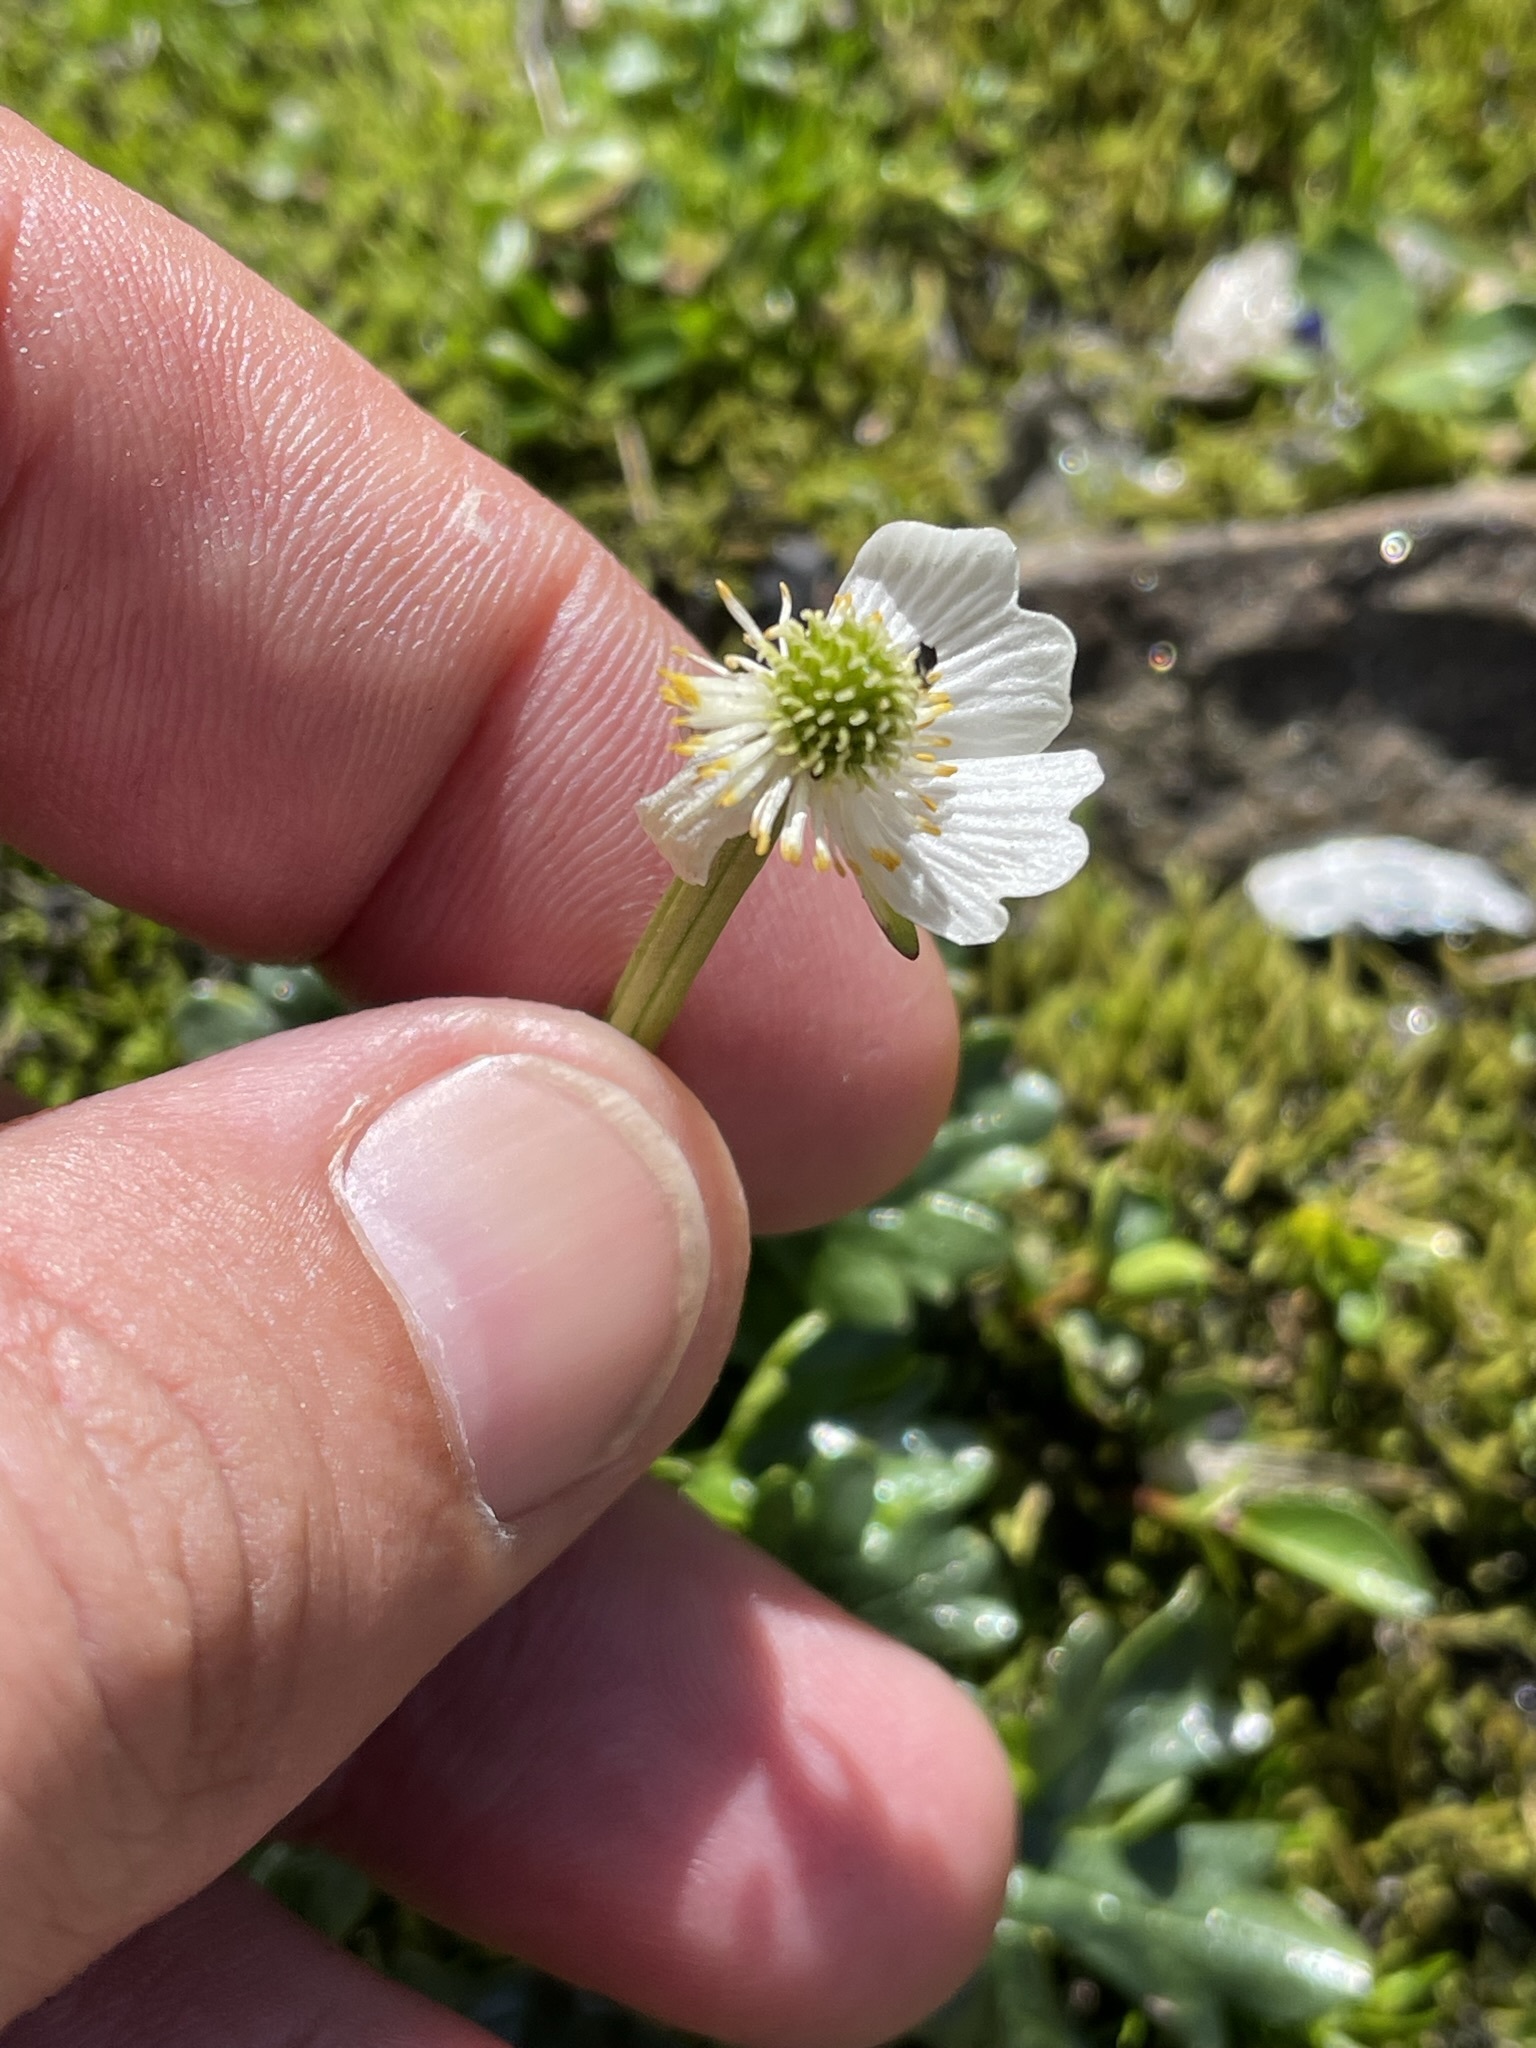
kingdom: Plantae
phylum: Tracheophyta
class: Magnoliopsida
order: Ranunculales
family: Ranunculaceae
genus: Ranunculus
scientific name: Ranunculus alpestris
